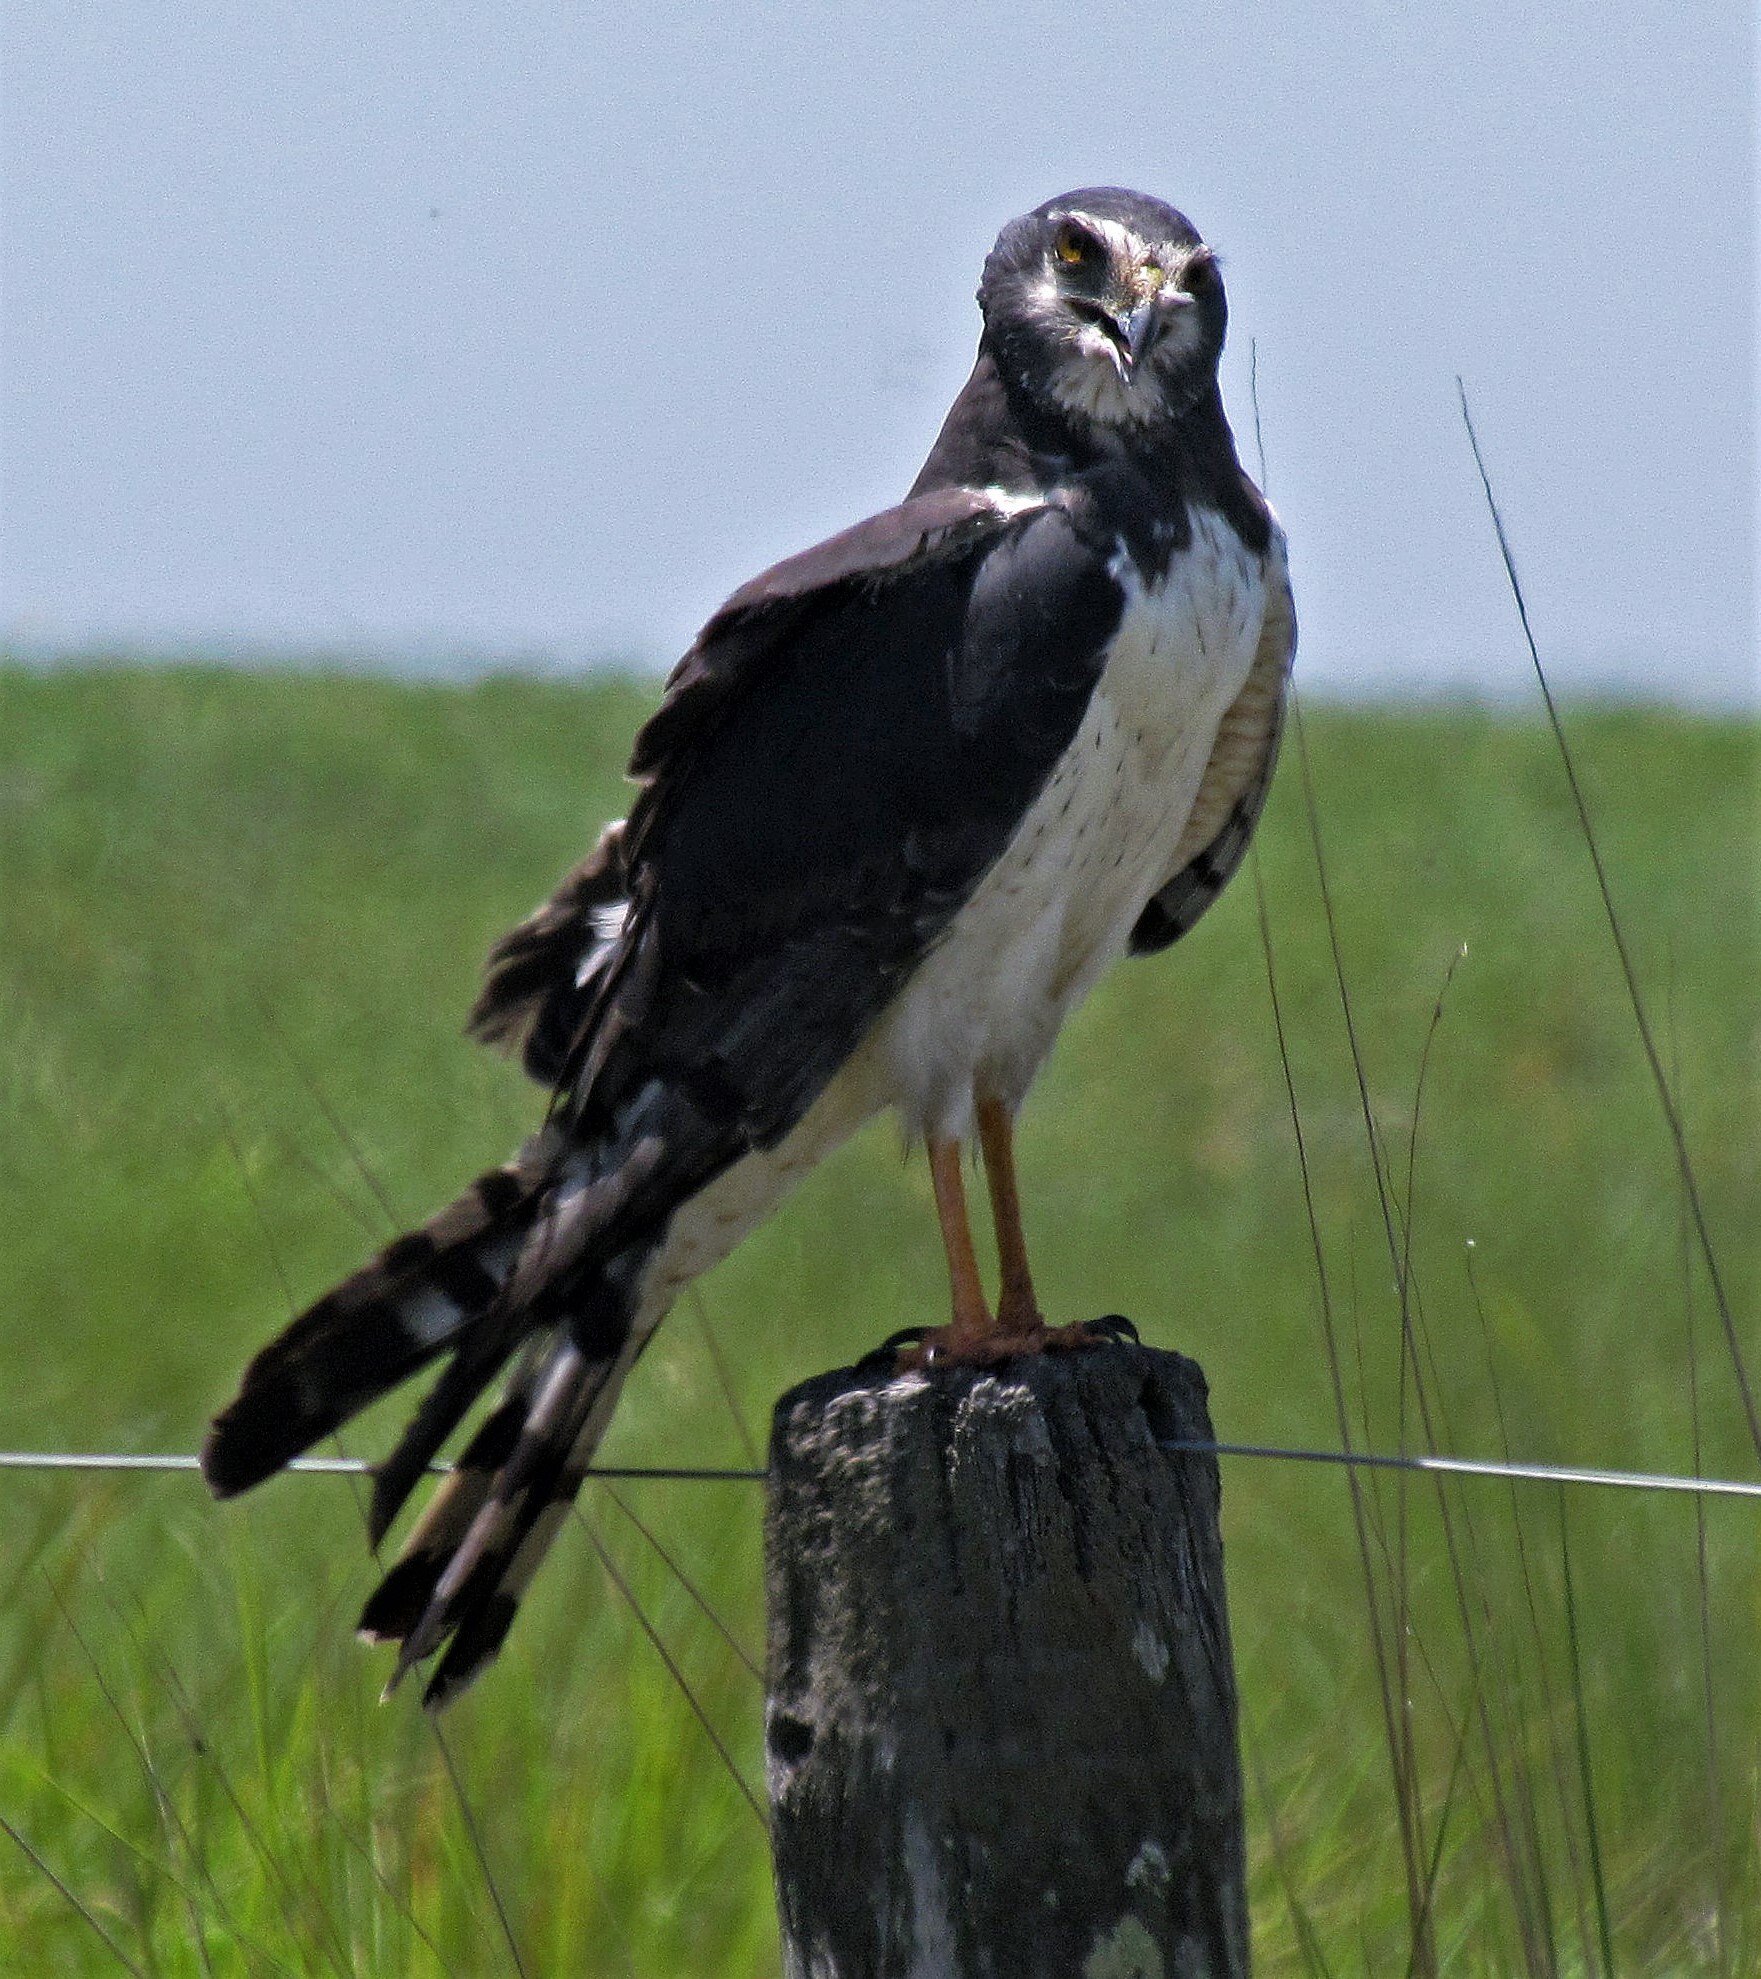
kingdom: Animalia
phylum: Chordata
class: Aves
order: Accipitriformes
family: Accipitridae
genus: Circus
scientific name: Circus buffoni
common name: Long-winged harrier
